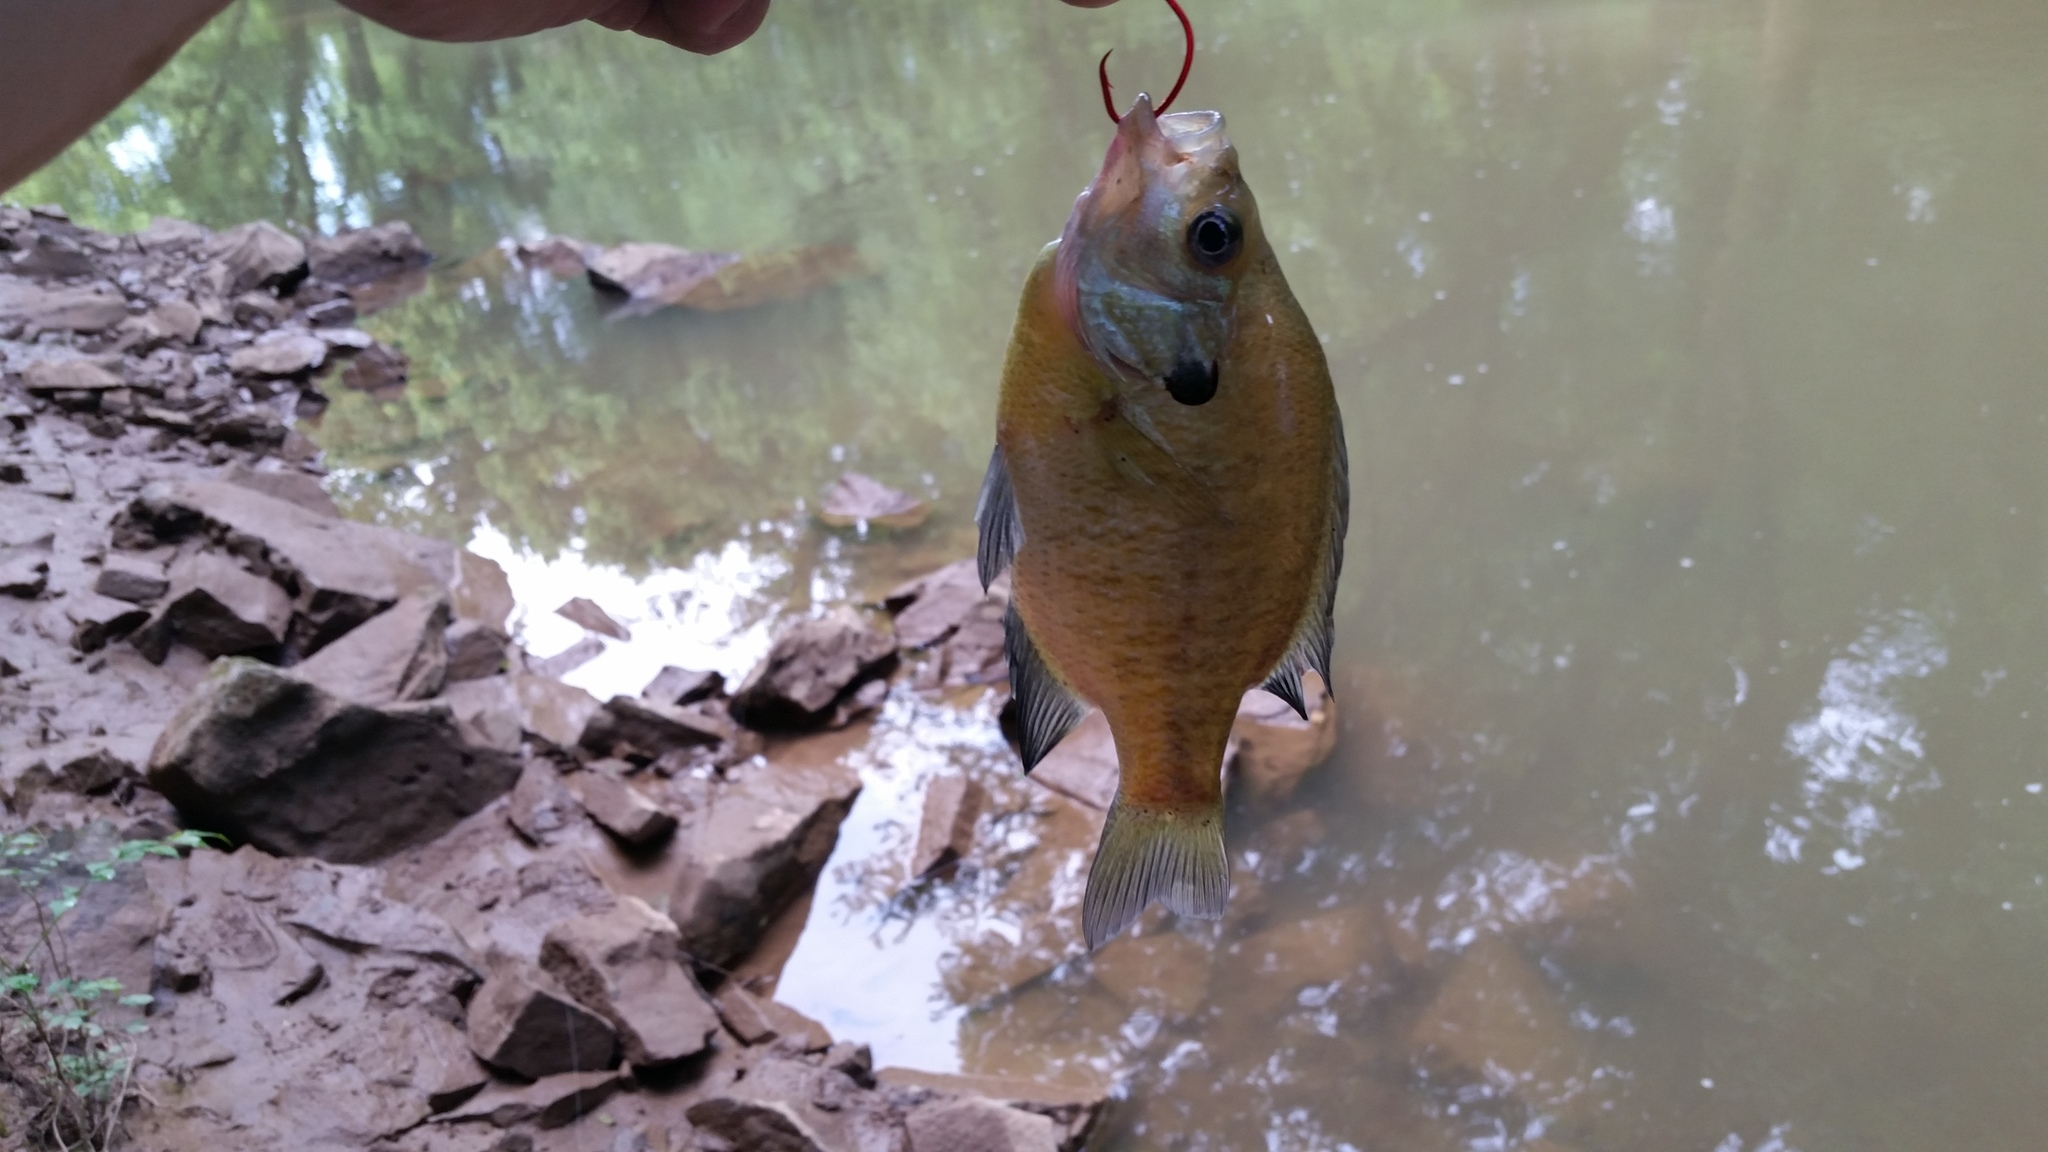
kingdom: Animalia
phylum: Chordata
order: Perciformes
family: Centrarchidae
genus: Lepomis
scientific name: Lepomis macrochirus
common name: Bluegill
